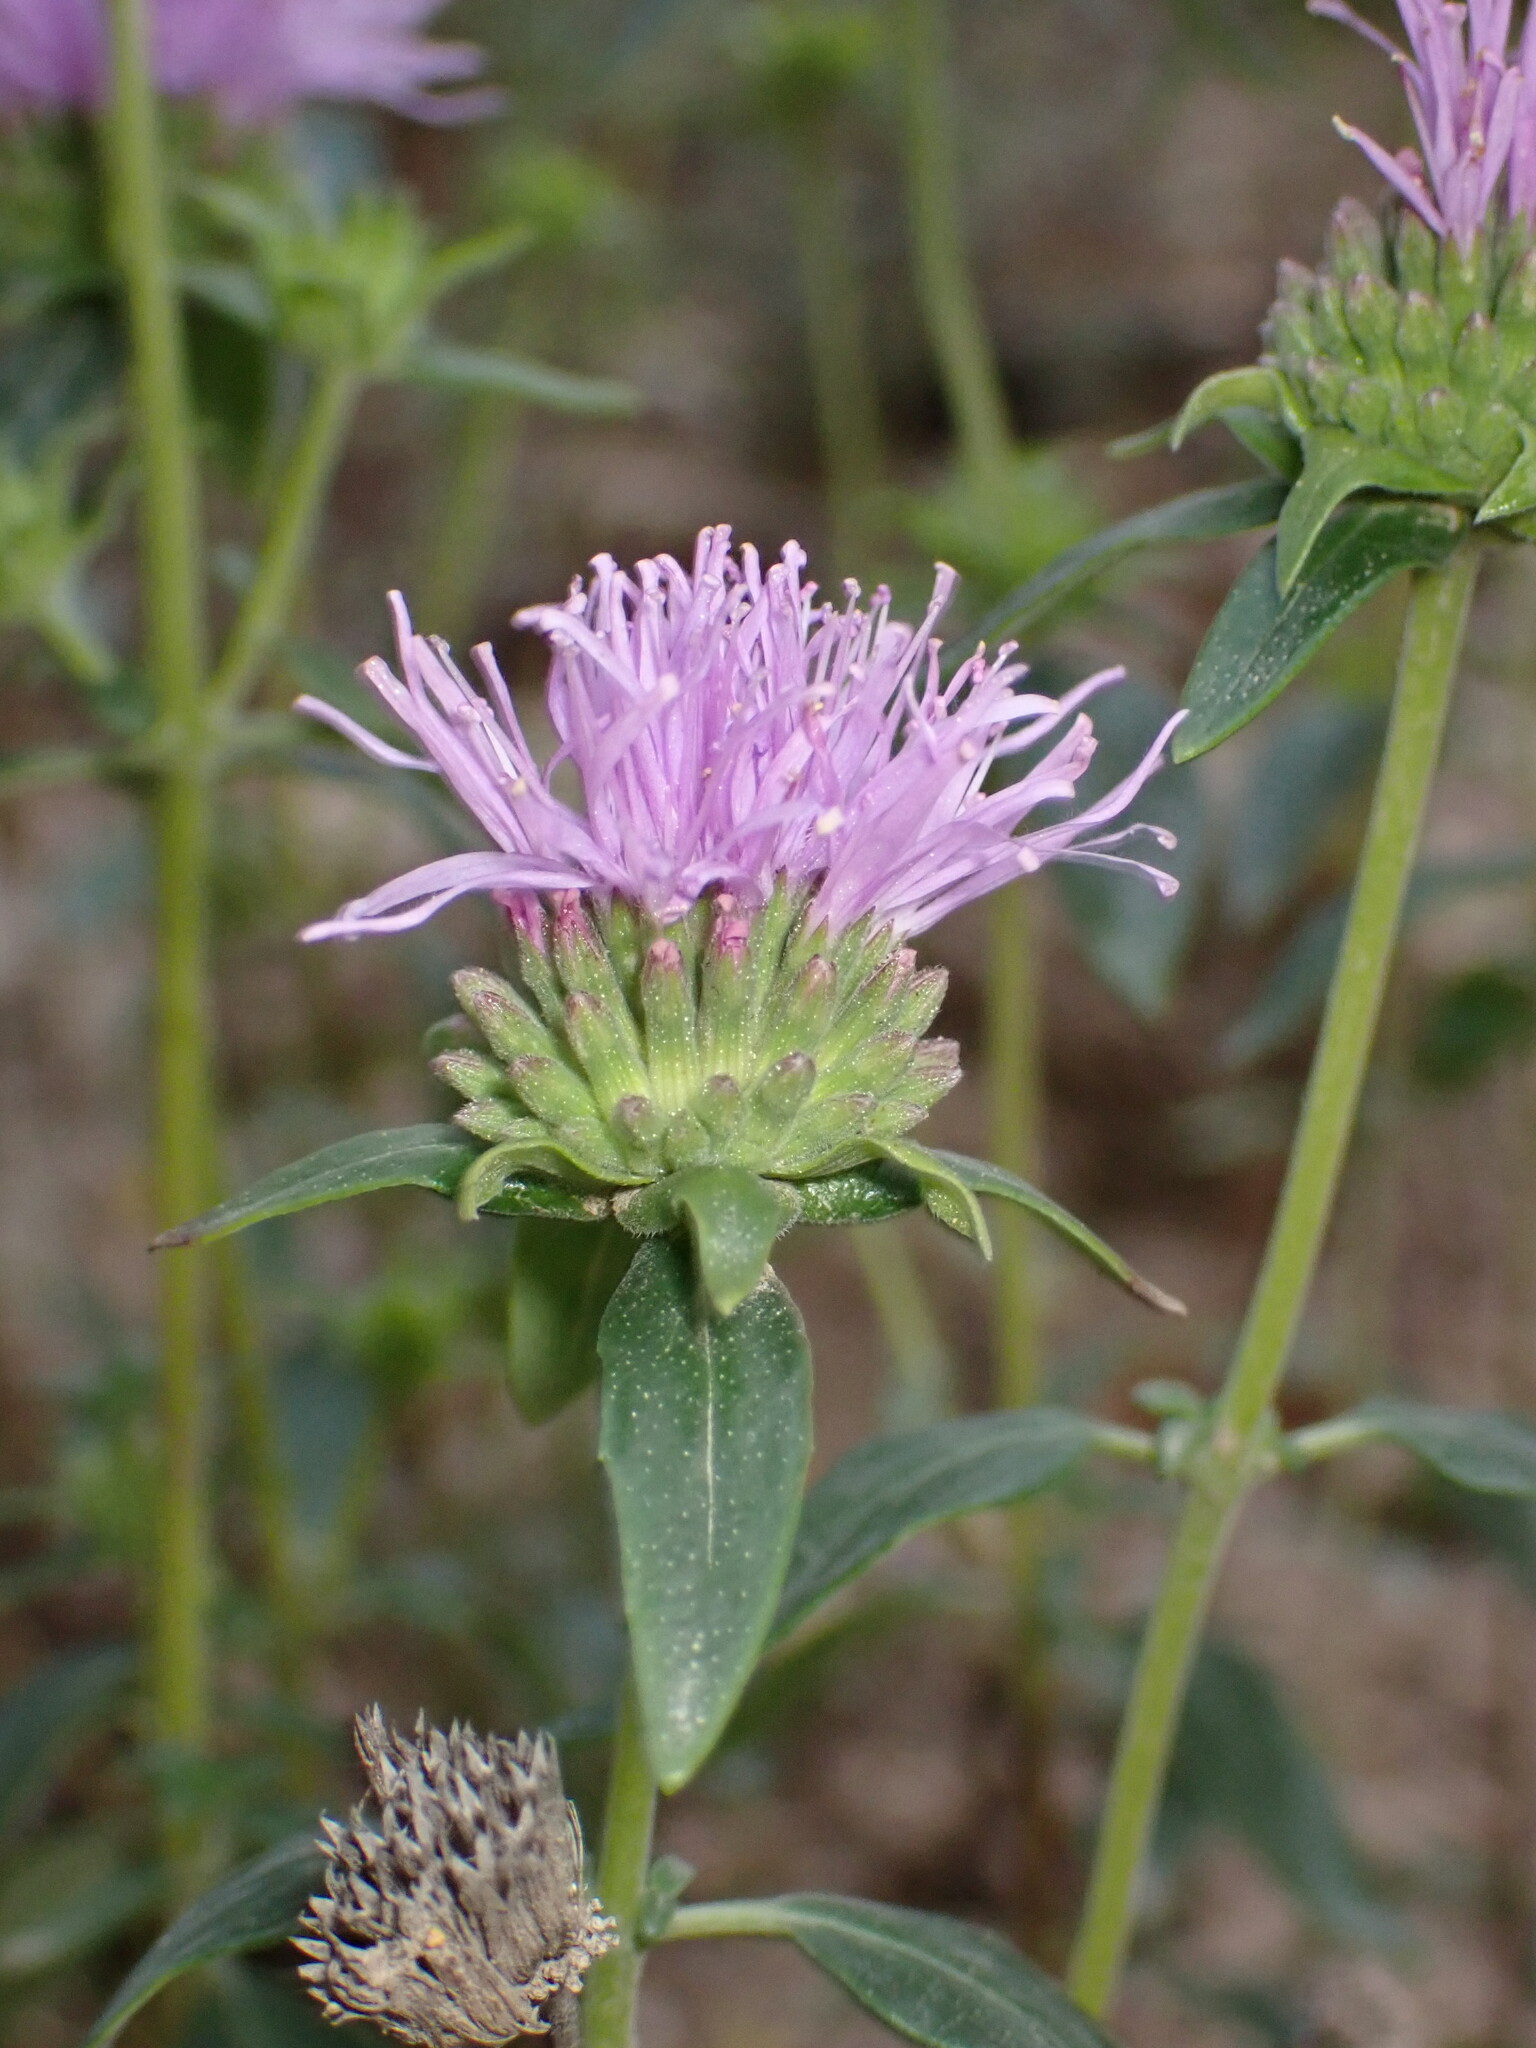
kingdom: Plantae
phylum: Tracheophyta
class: Magnoliopsida
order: Lamiales
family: Lamiaceae
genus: Monardella
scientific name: Monardella odoratissima
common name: Pacific monardella
